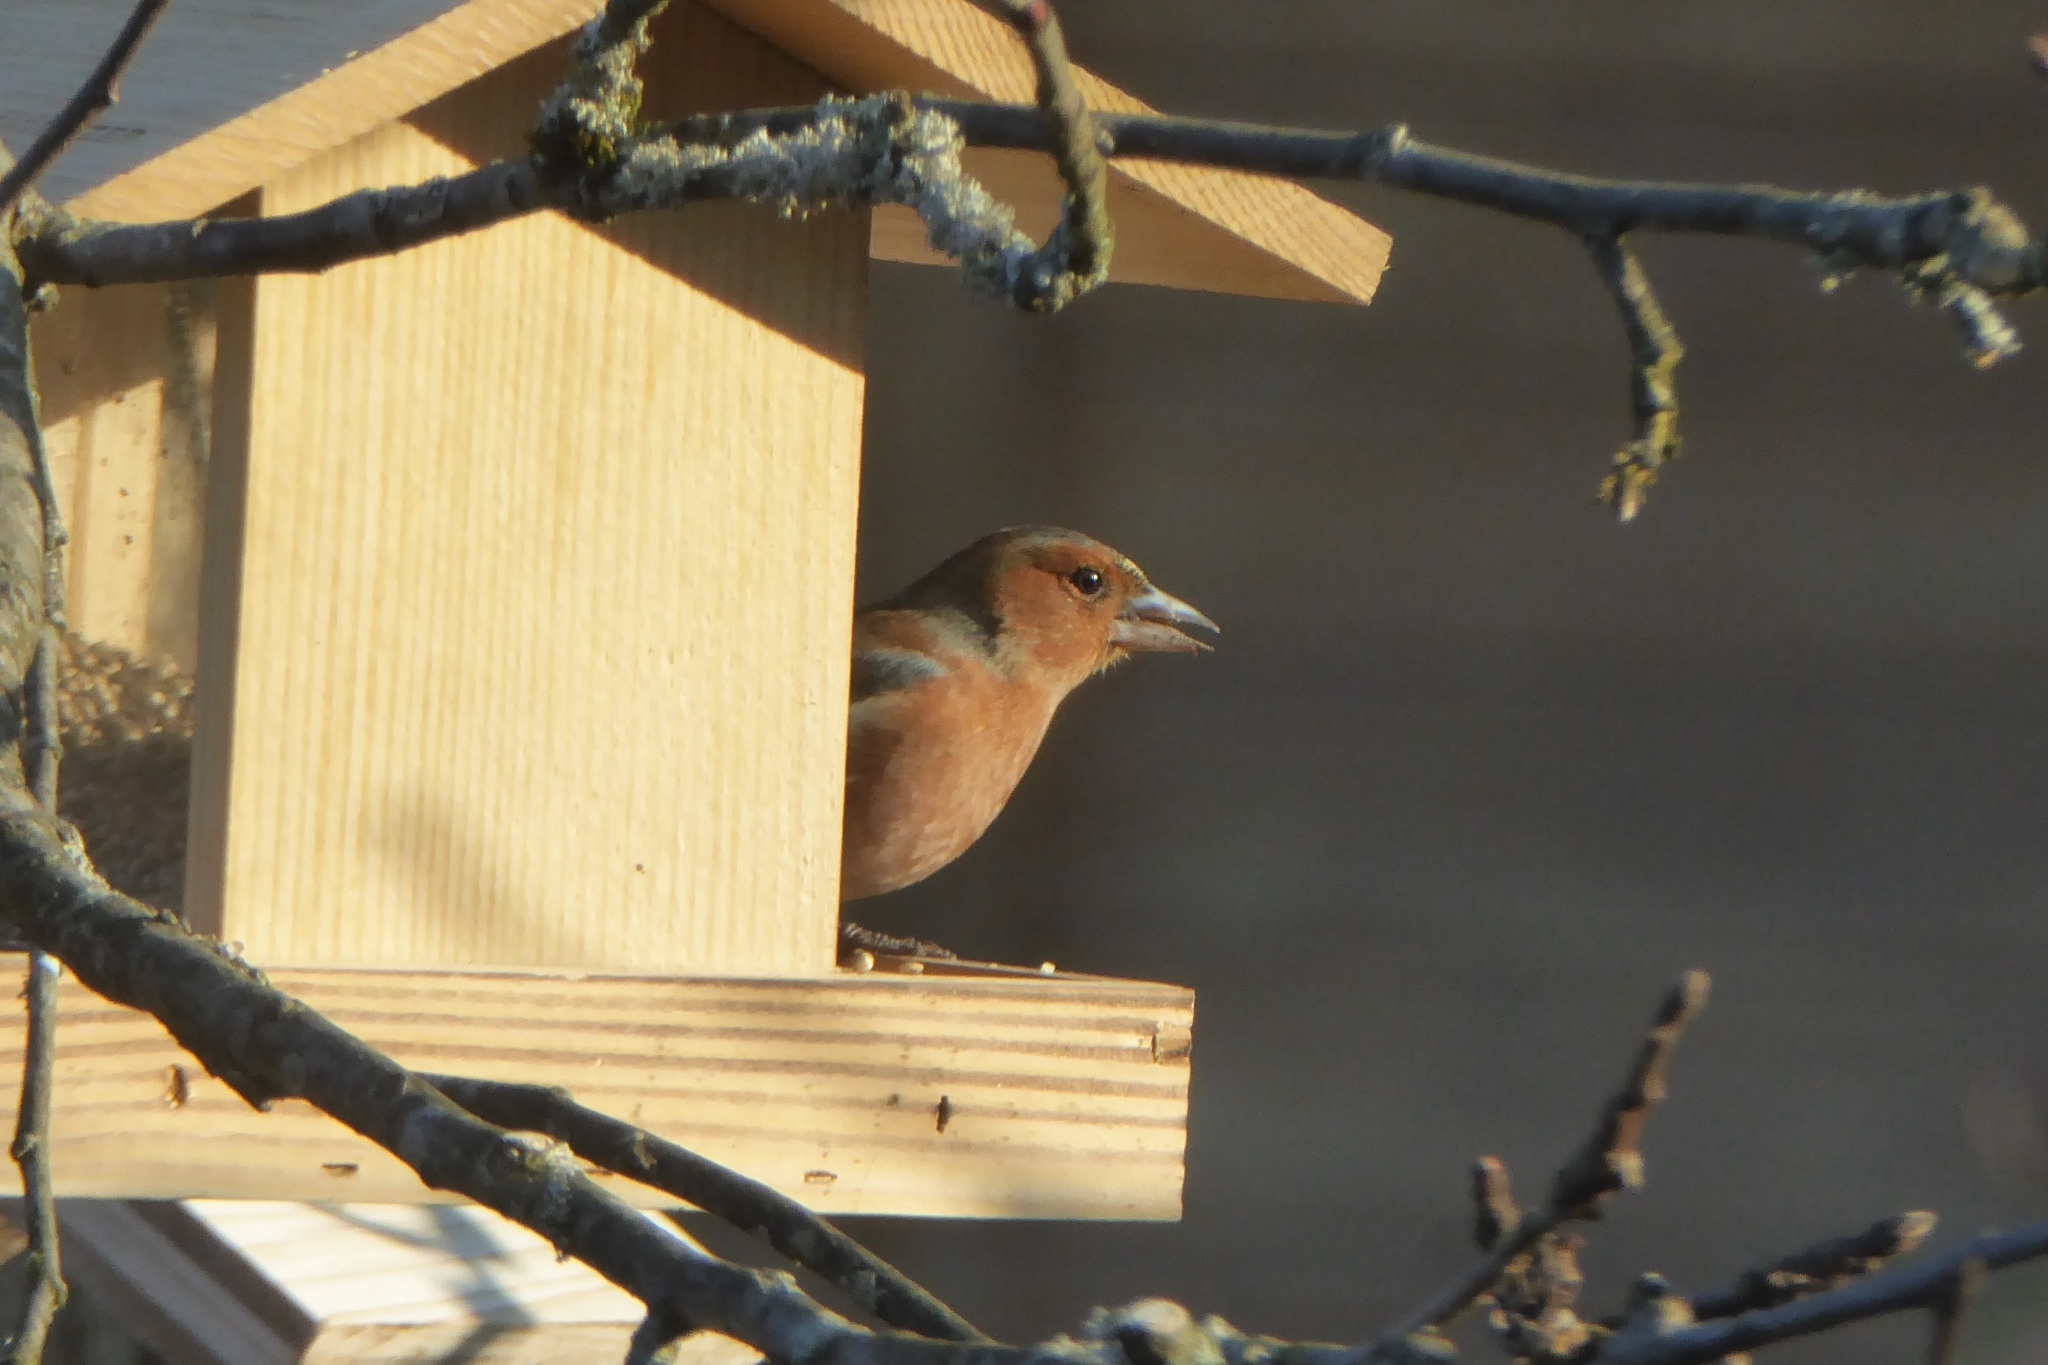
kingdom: Animalia
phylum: Chordata
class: Aves
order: Passeriformes
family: Fringillidae
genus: Fringilla
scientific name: Fringilla coelebs
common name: Common chaffinch
